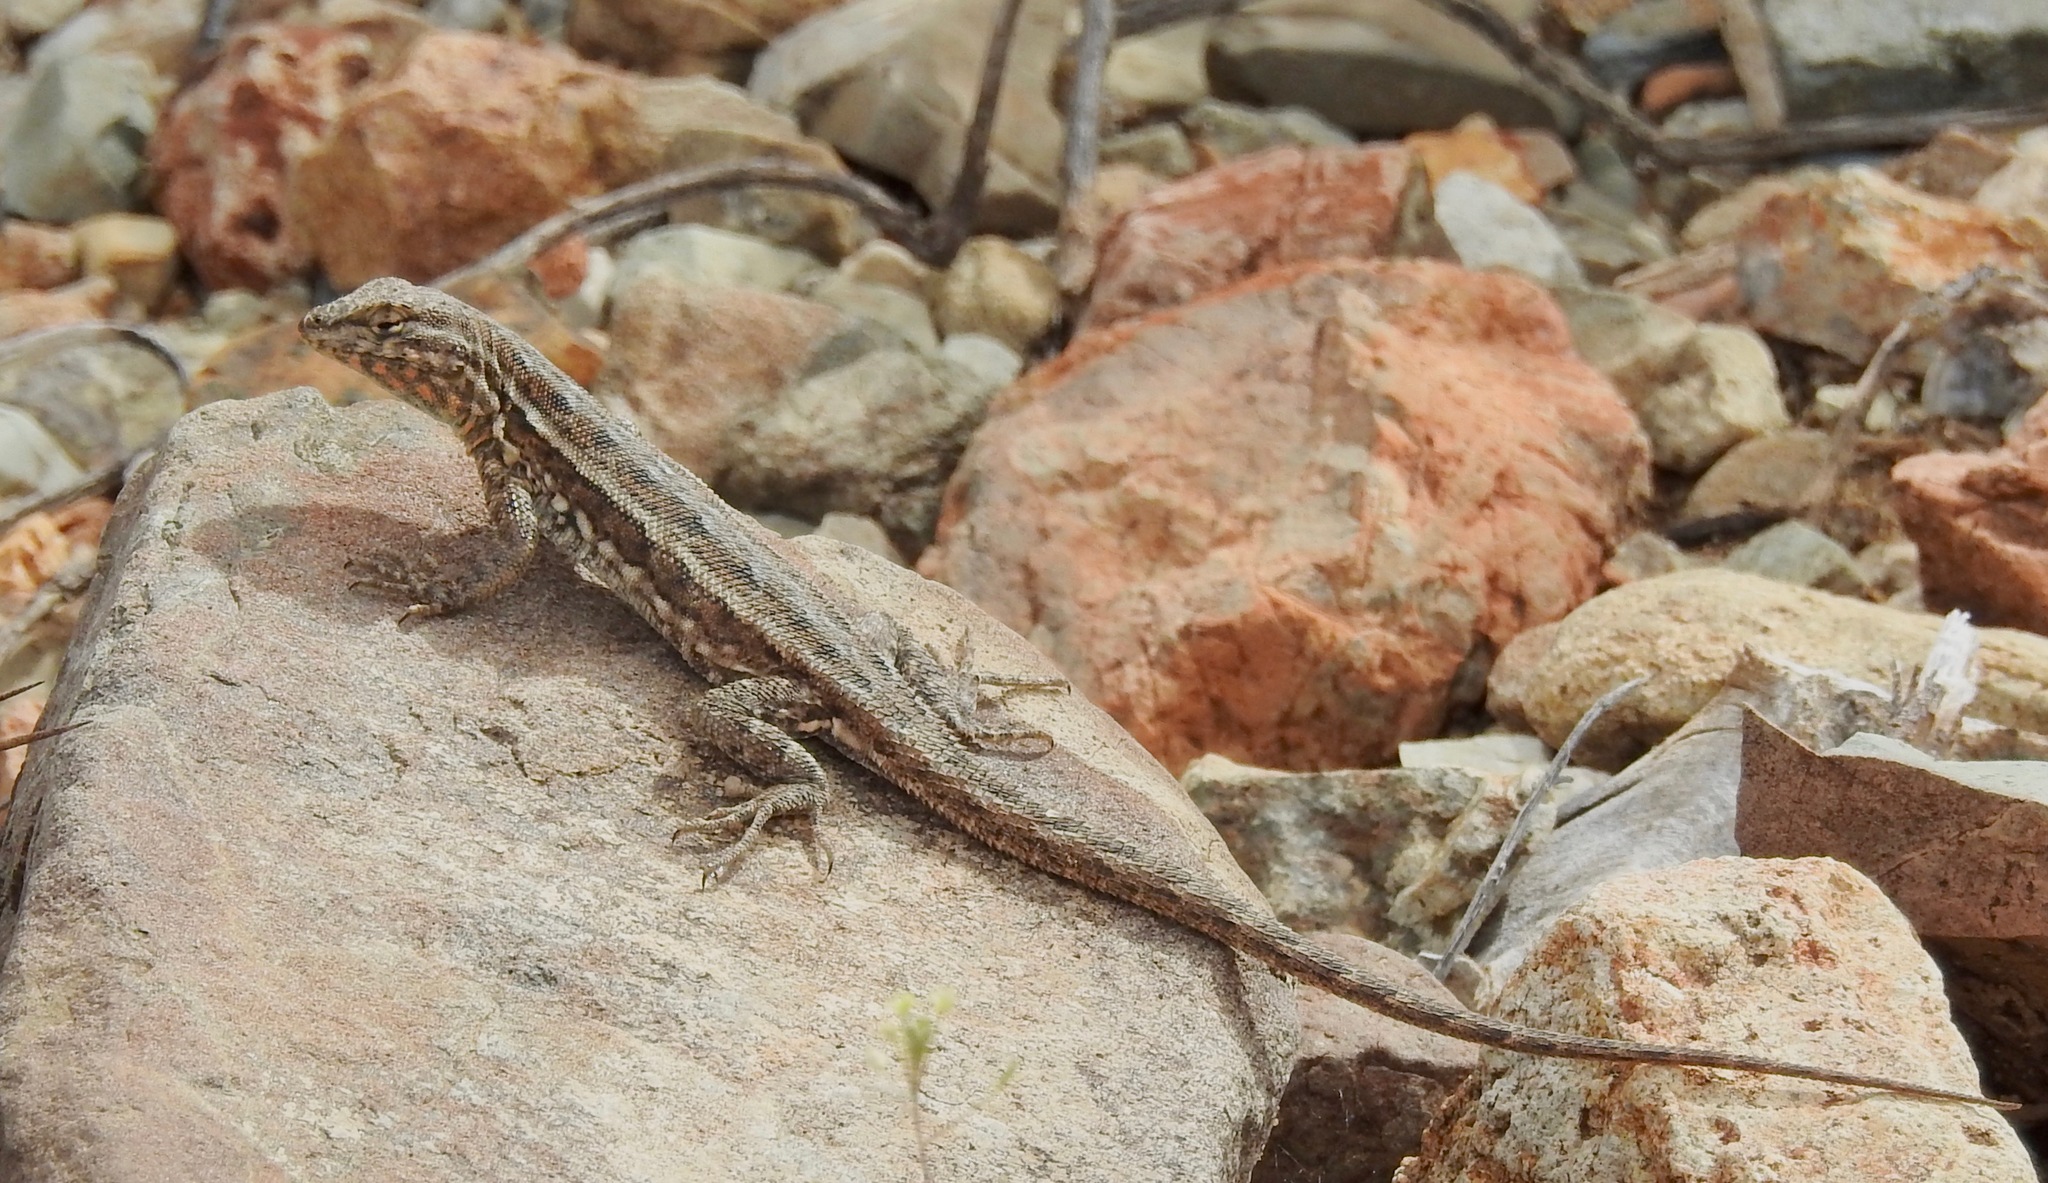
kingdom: Animalia
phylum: Chordata
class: Squamata
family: Phrynosomatidae
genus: Uta
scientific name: Uta stansburiana
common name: Side-blotched lizard
